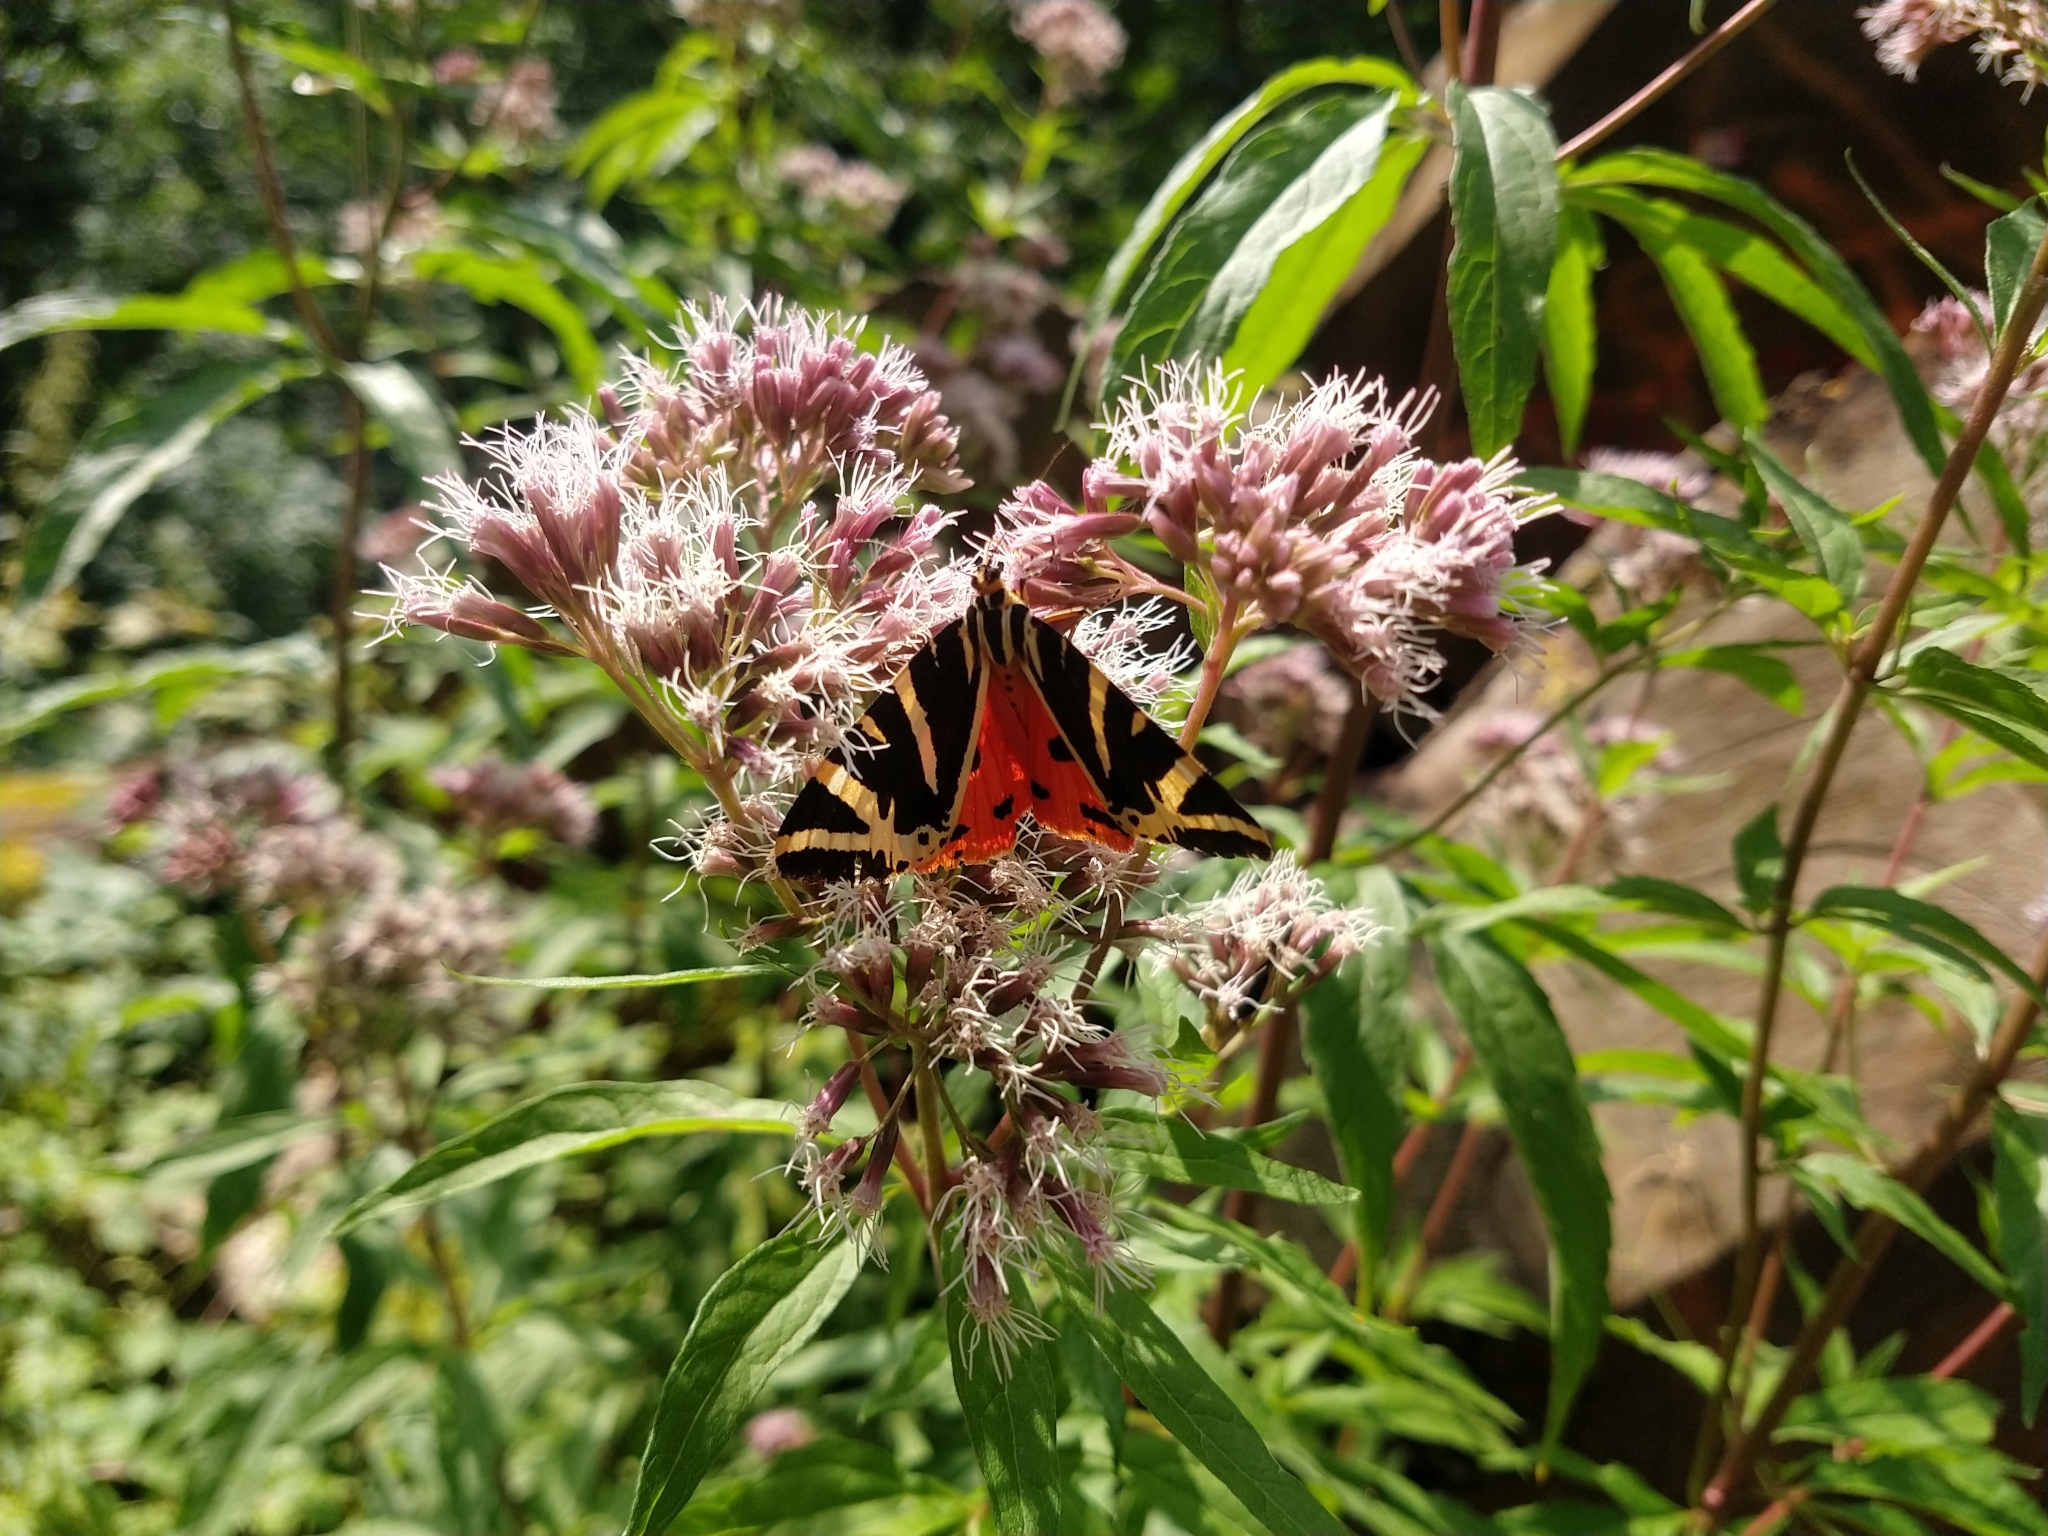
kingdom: Animalia
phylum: Arthropoda
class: Insecta
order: Lepidoptera
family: Erebidae
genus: Euplagia
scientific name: Euplagia quadripunctaria
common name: Jersey tiger
